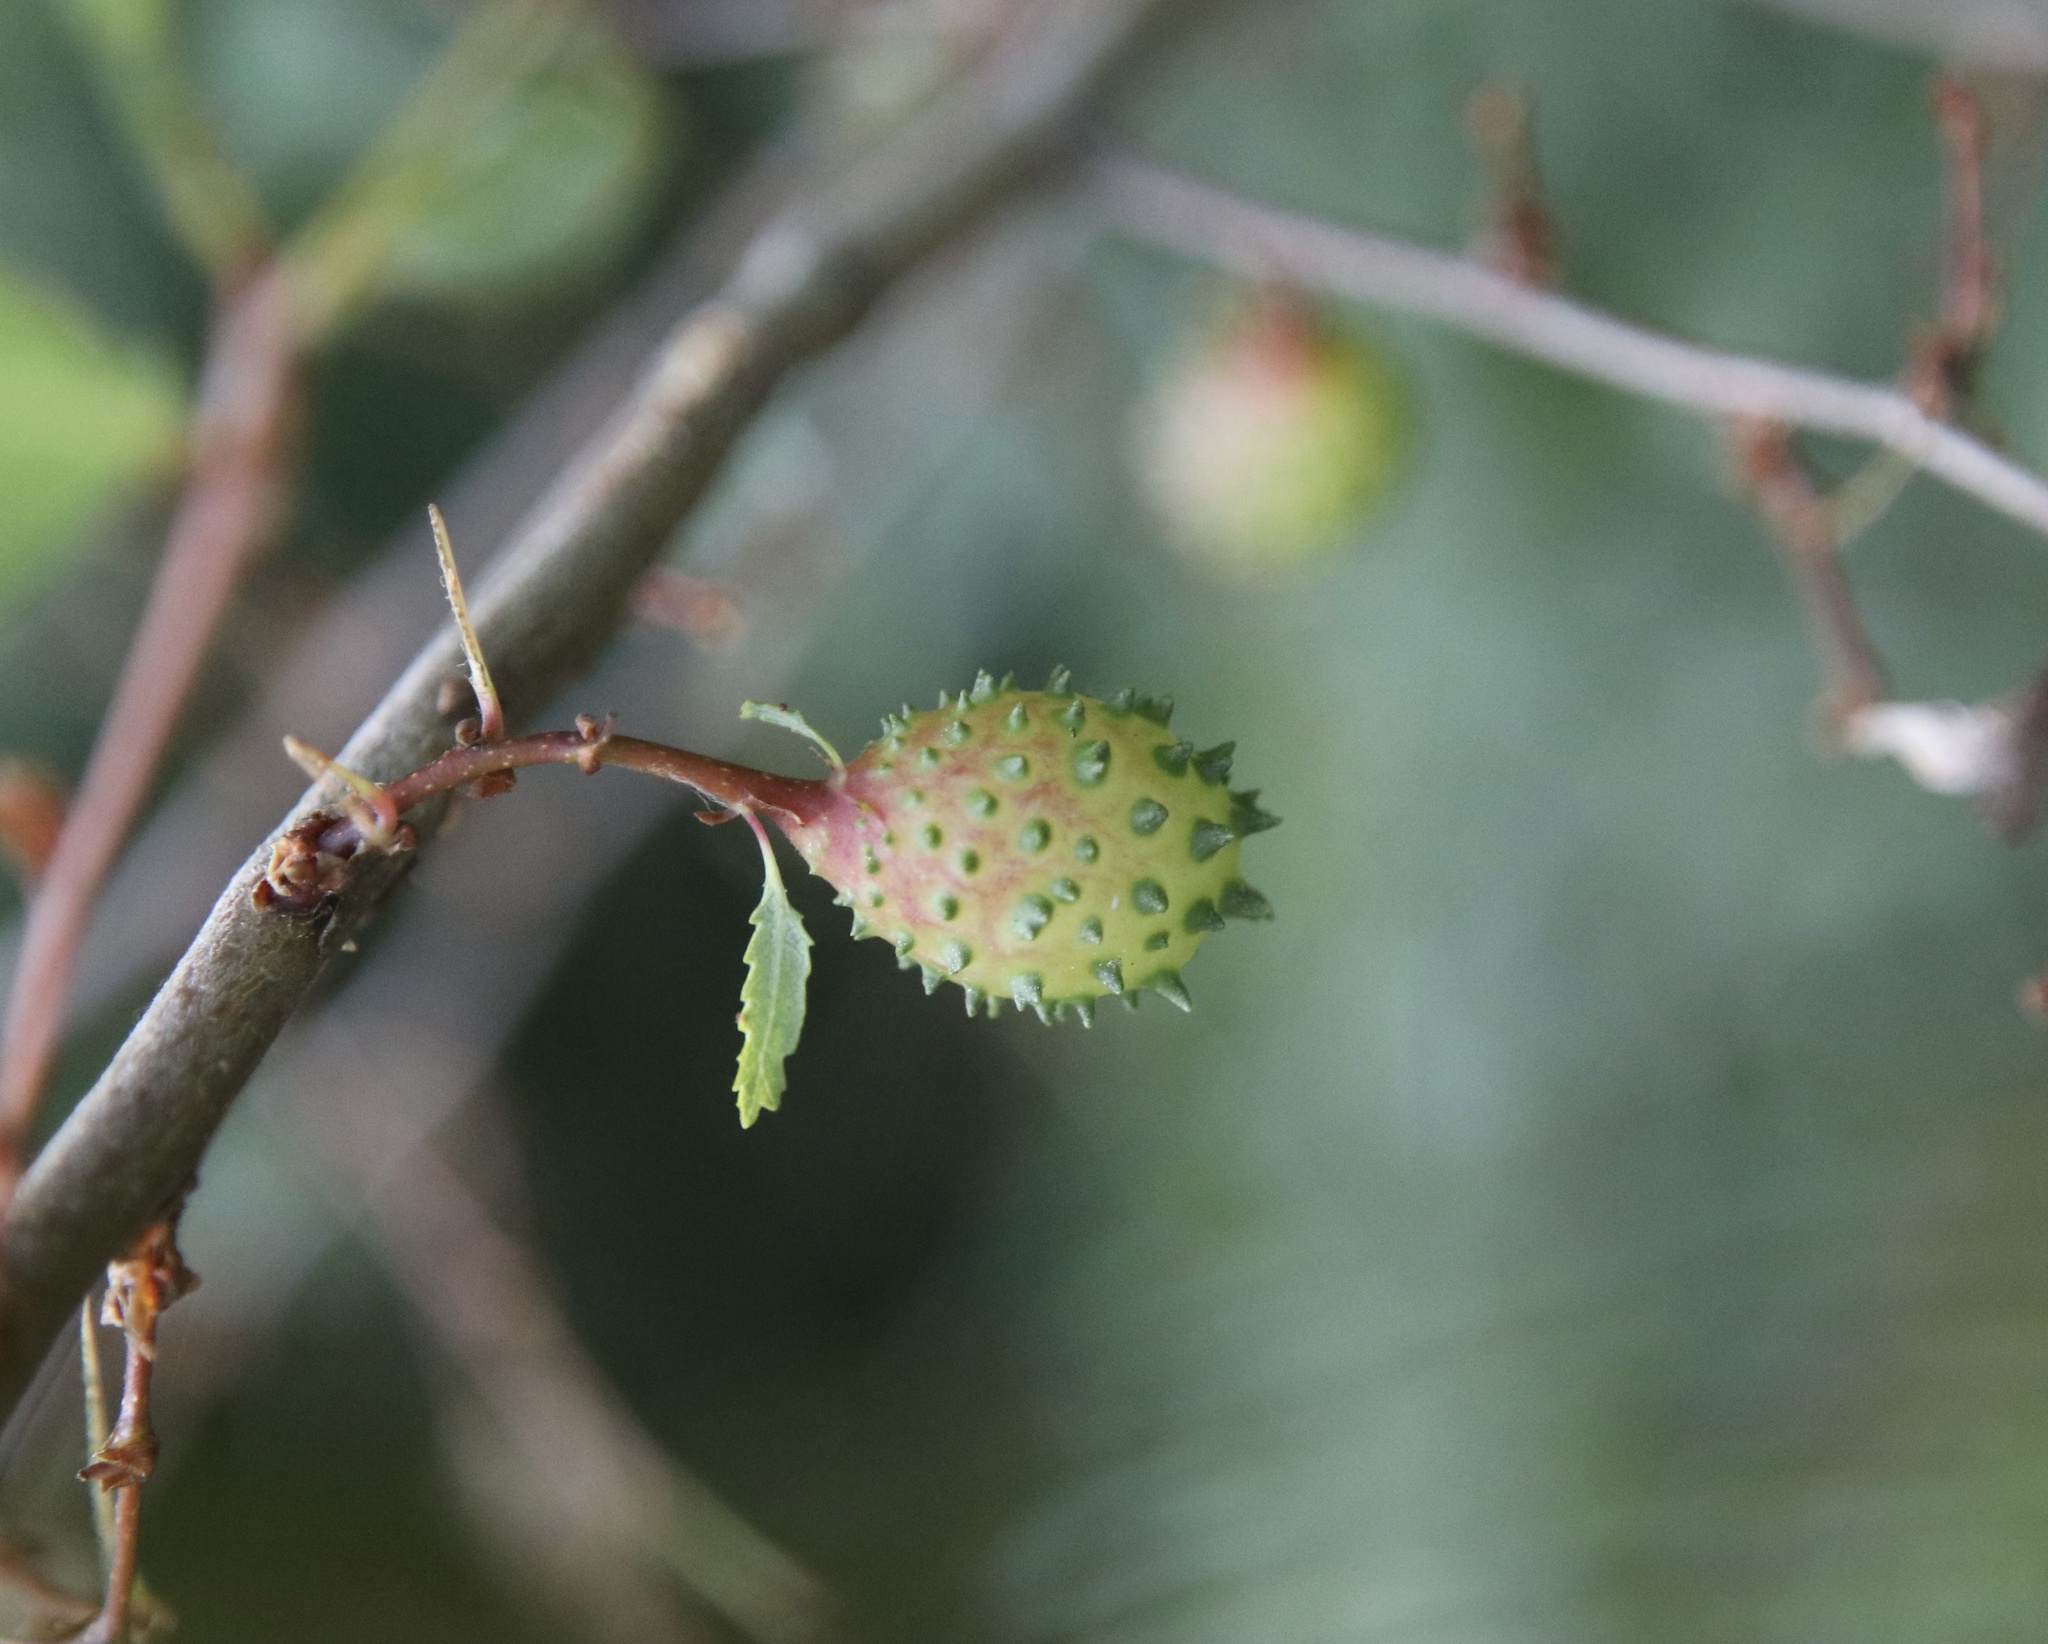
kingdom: Animalia
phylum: Arthropoda
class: Insecta
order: Hymenoptera
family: Pteromalidae
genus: Espinosa
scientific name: Espinosa nothofagi
